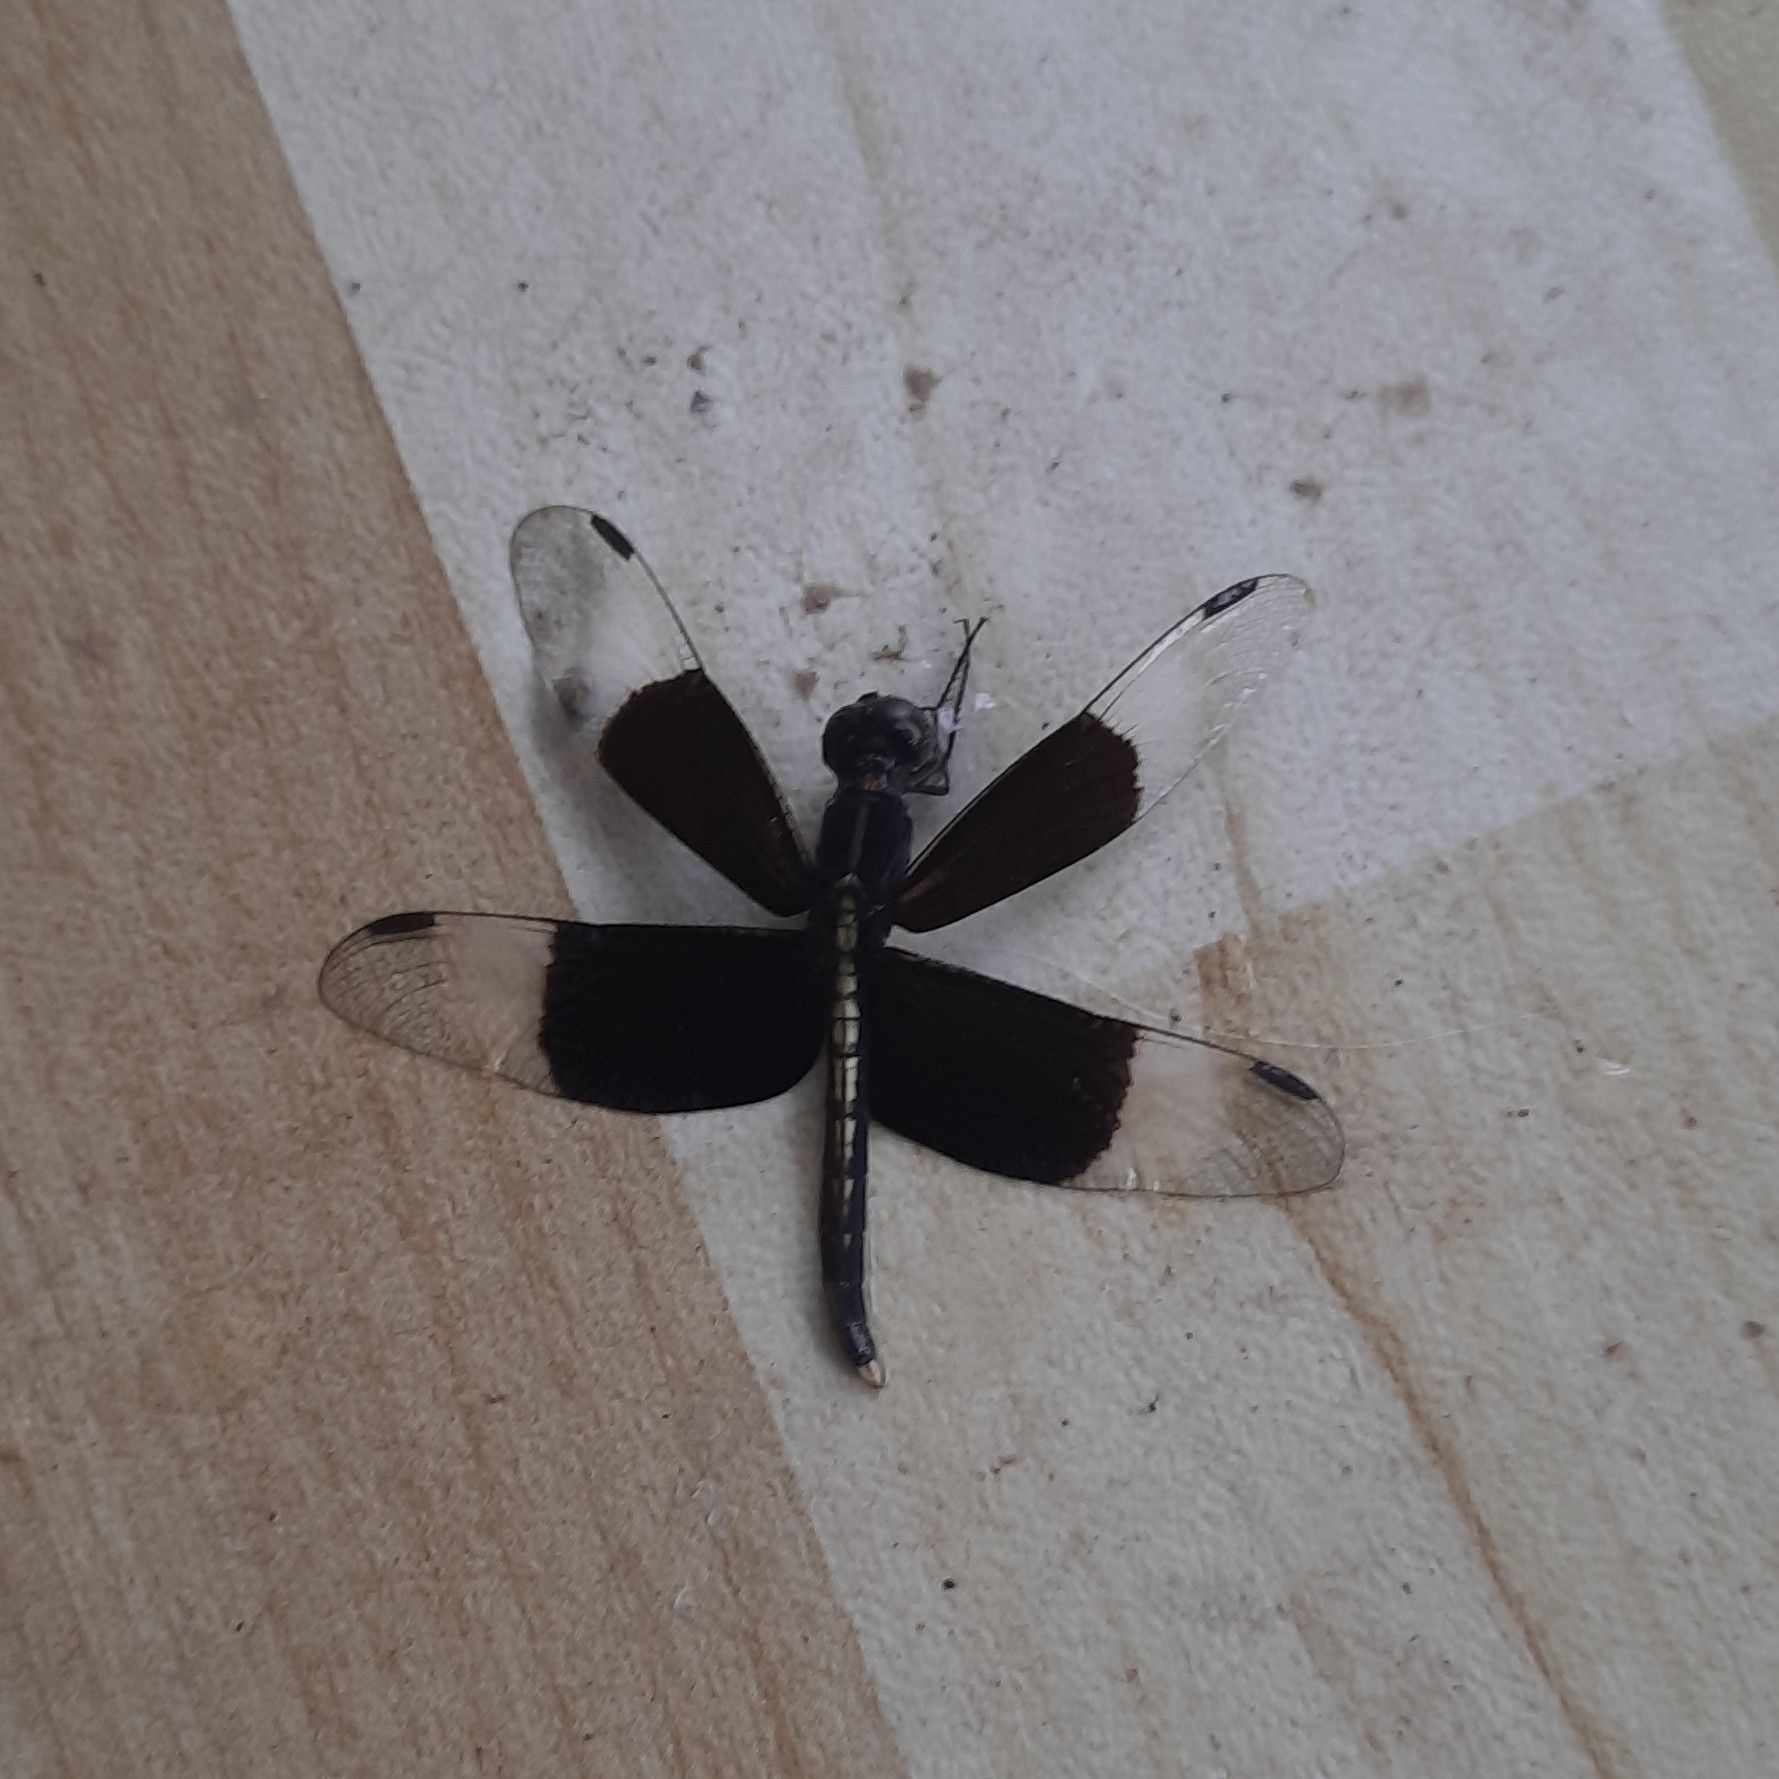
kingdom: Animalia
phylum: Arthropoda
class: Insecta
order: Odonata
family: Libellulidae
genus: Neurothemis
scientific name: Neurothemis tullia
